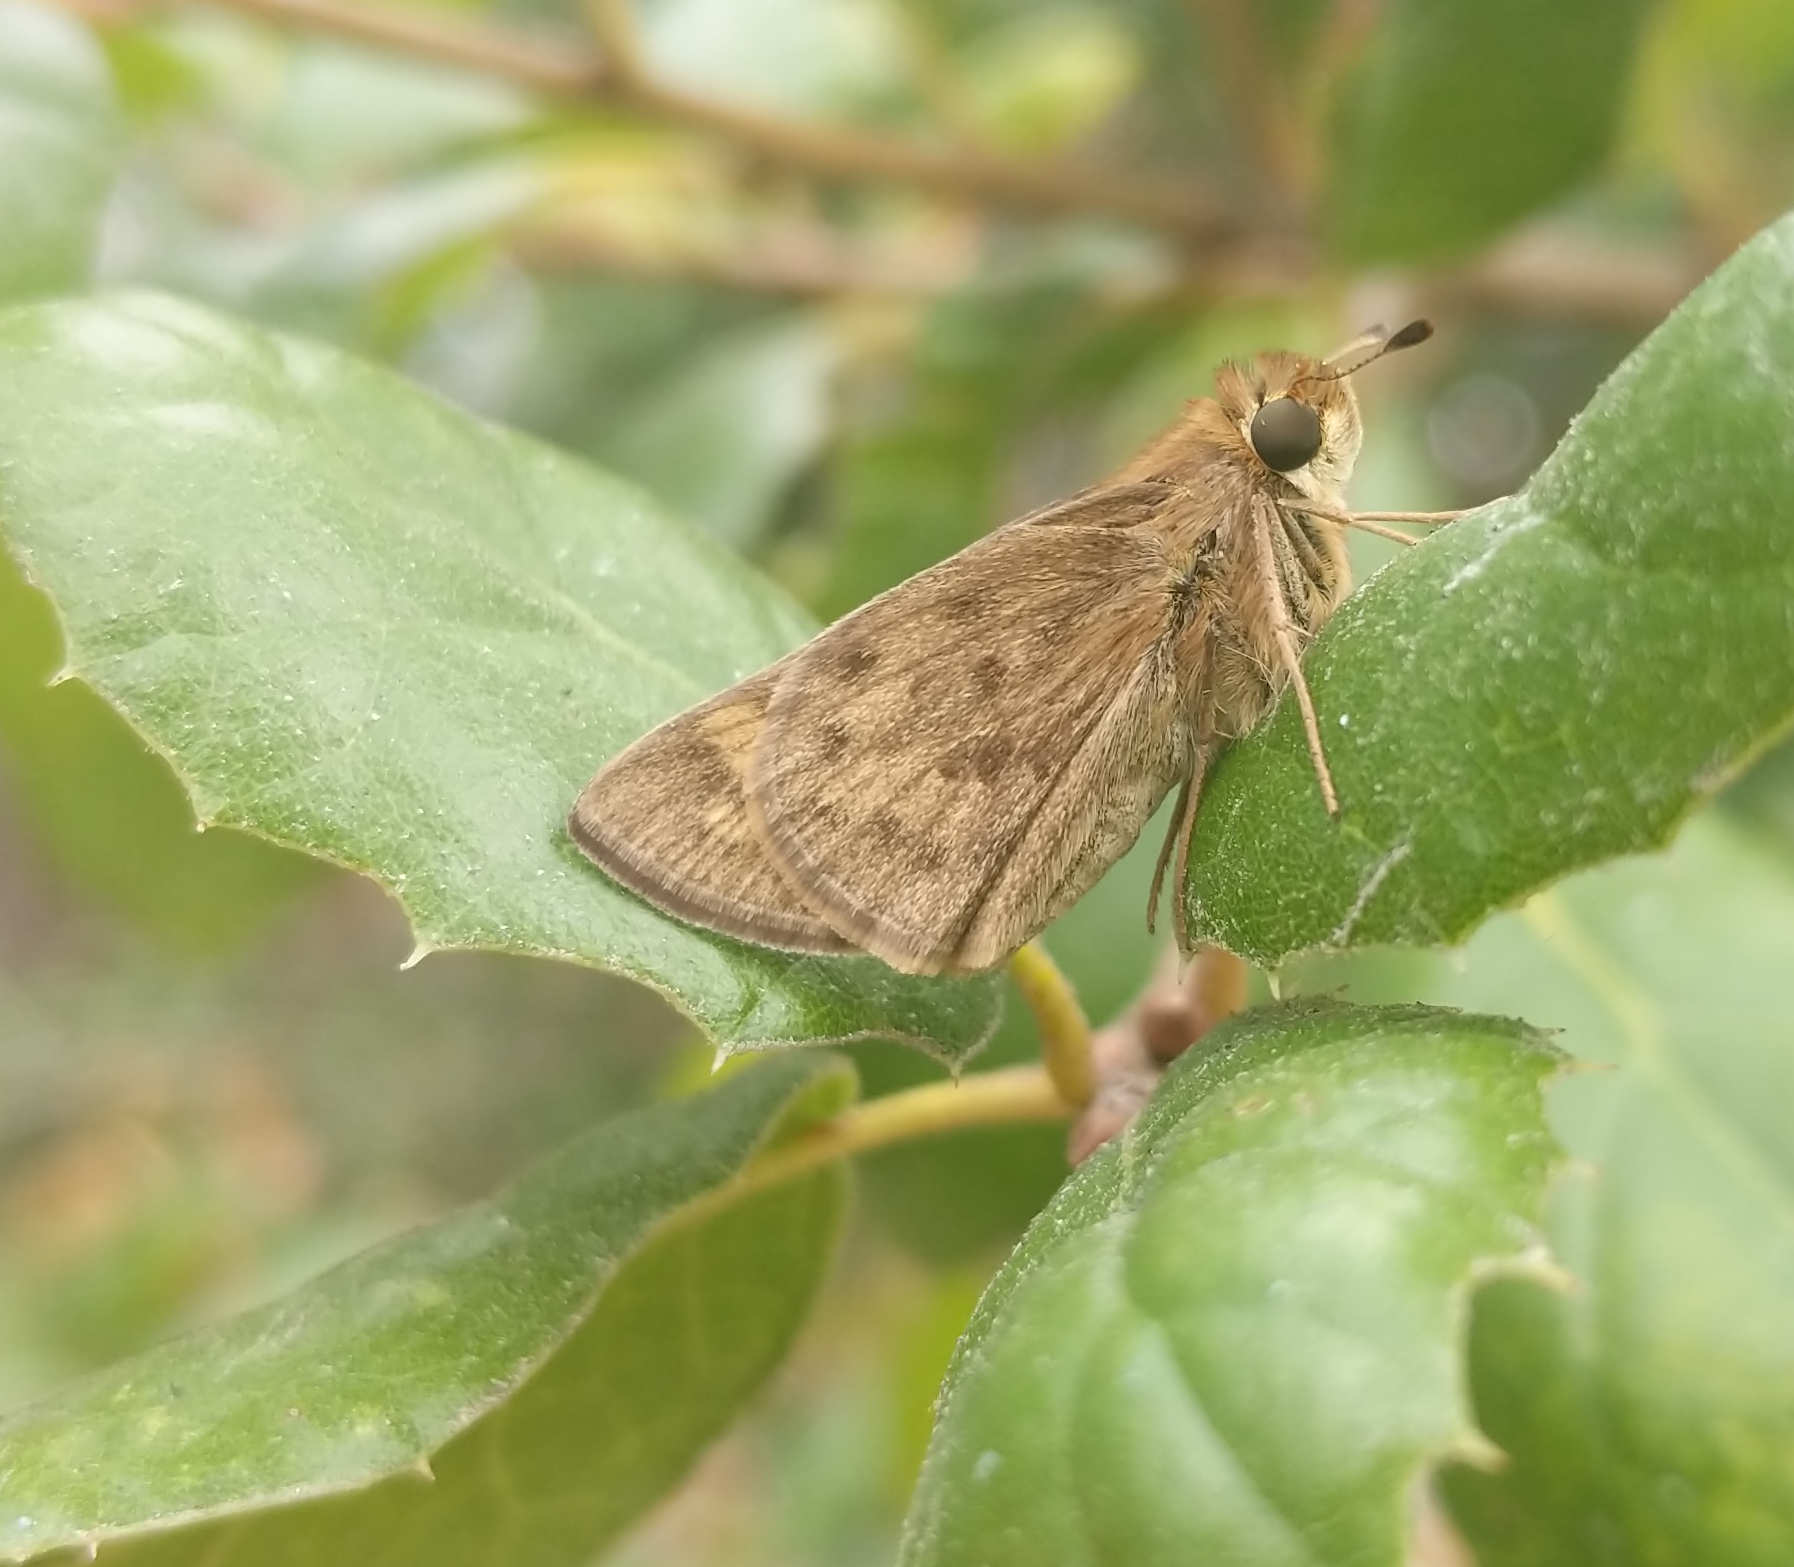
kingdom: Animalia
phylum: Arthropoda
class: Insecta
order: Lepidoptera
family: Hesperiidae
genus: Hylephila
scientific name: Hylephila phyleus
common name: Fiery skipper
